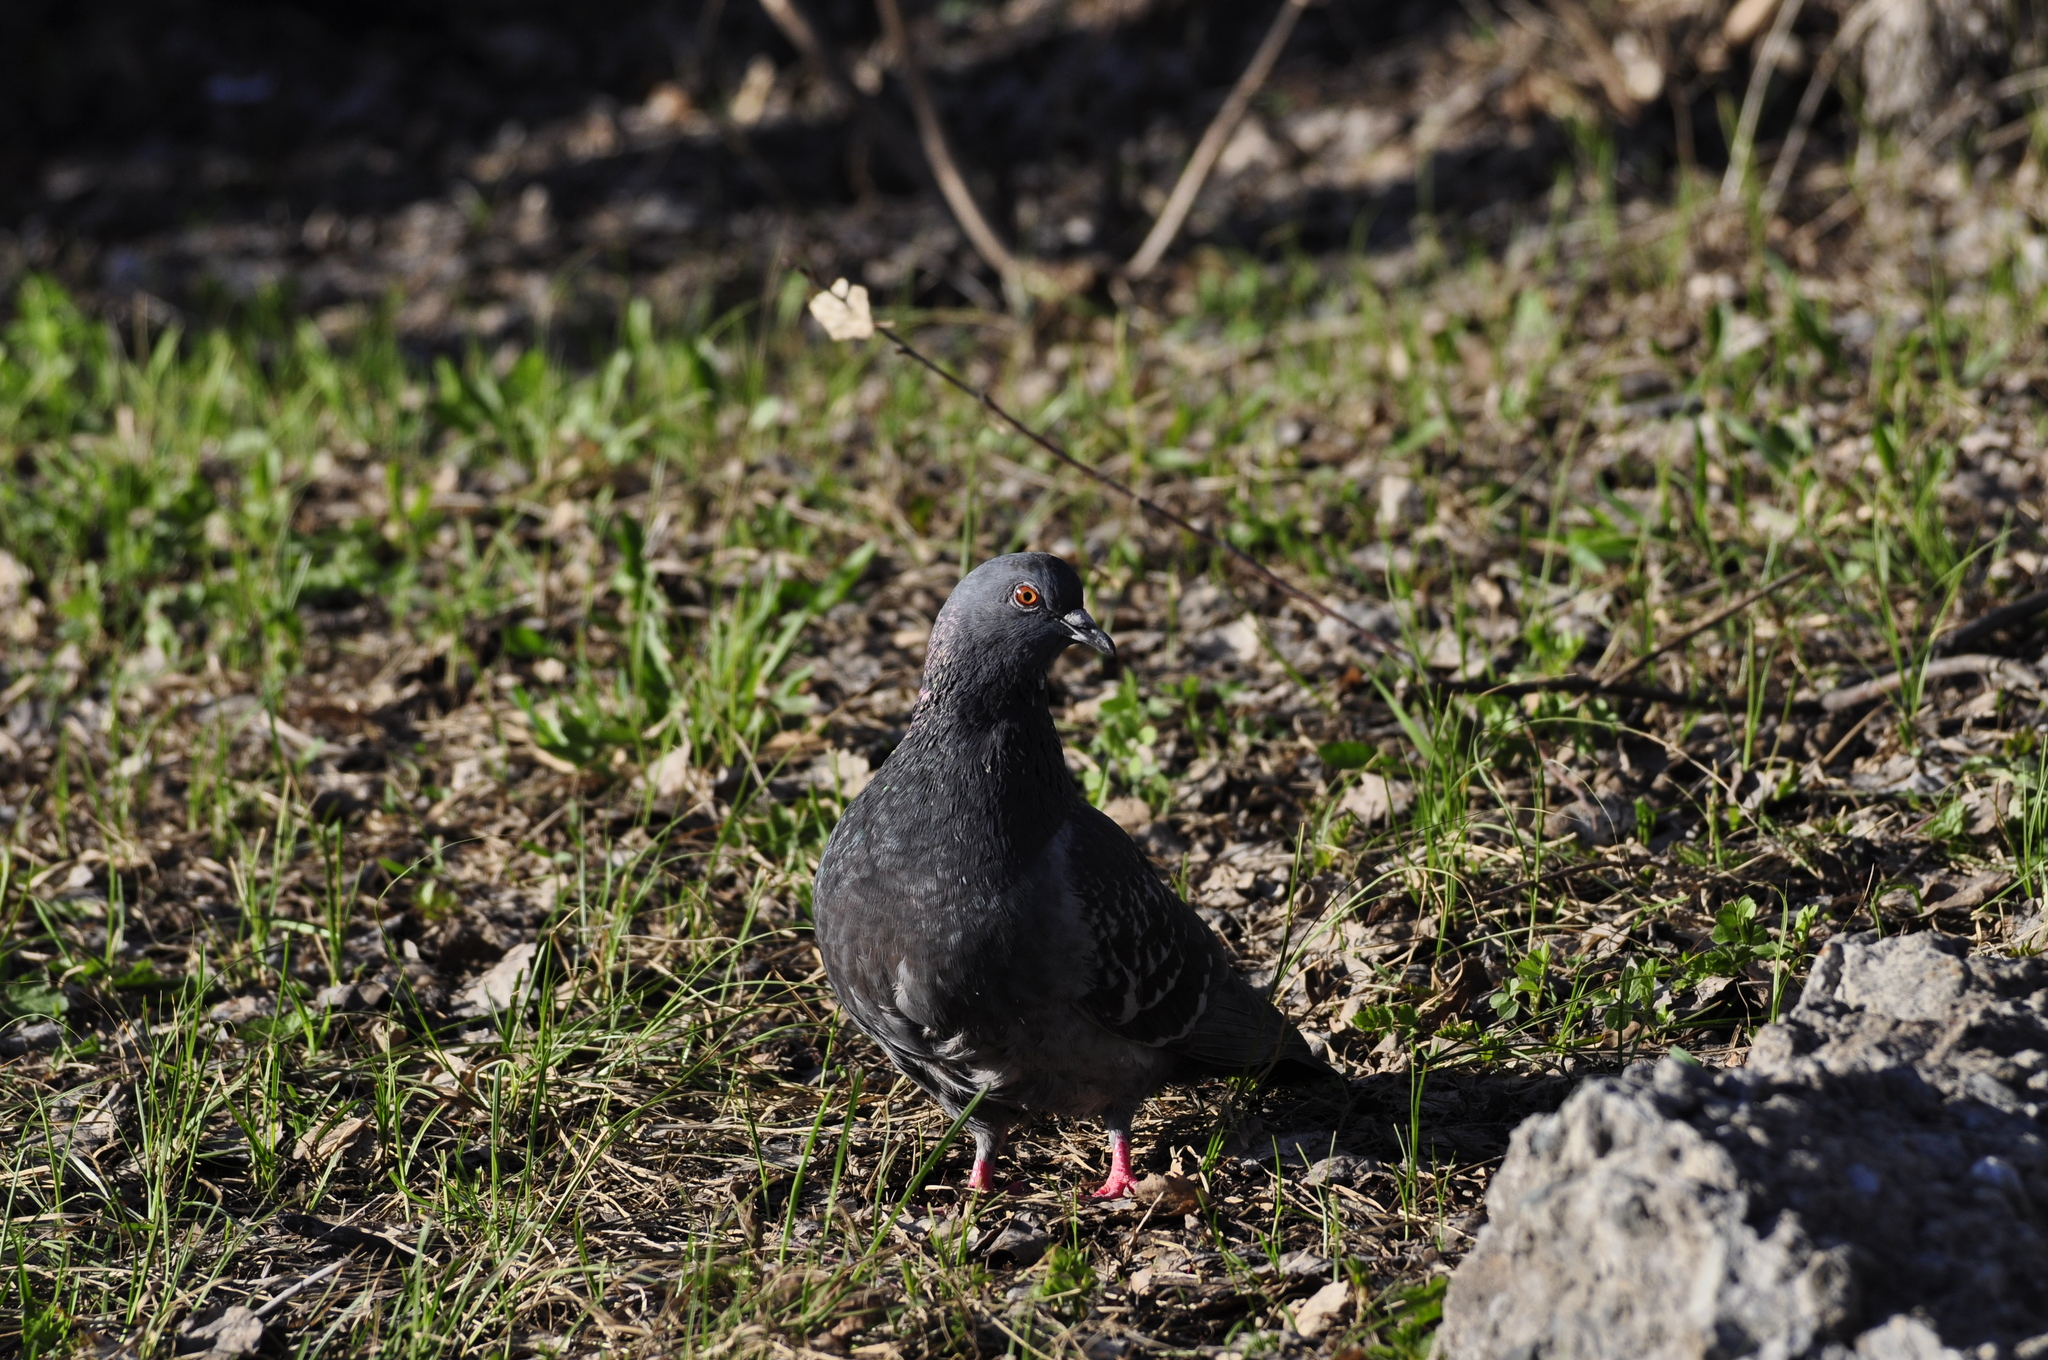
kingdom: Animalia
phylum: Chordata
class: Aves
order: Columbiformes
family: Columbidae
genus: Columba
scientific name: Columba livia
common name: Rock pigeon
